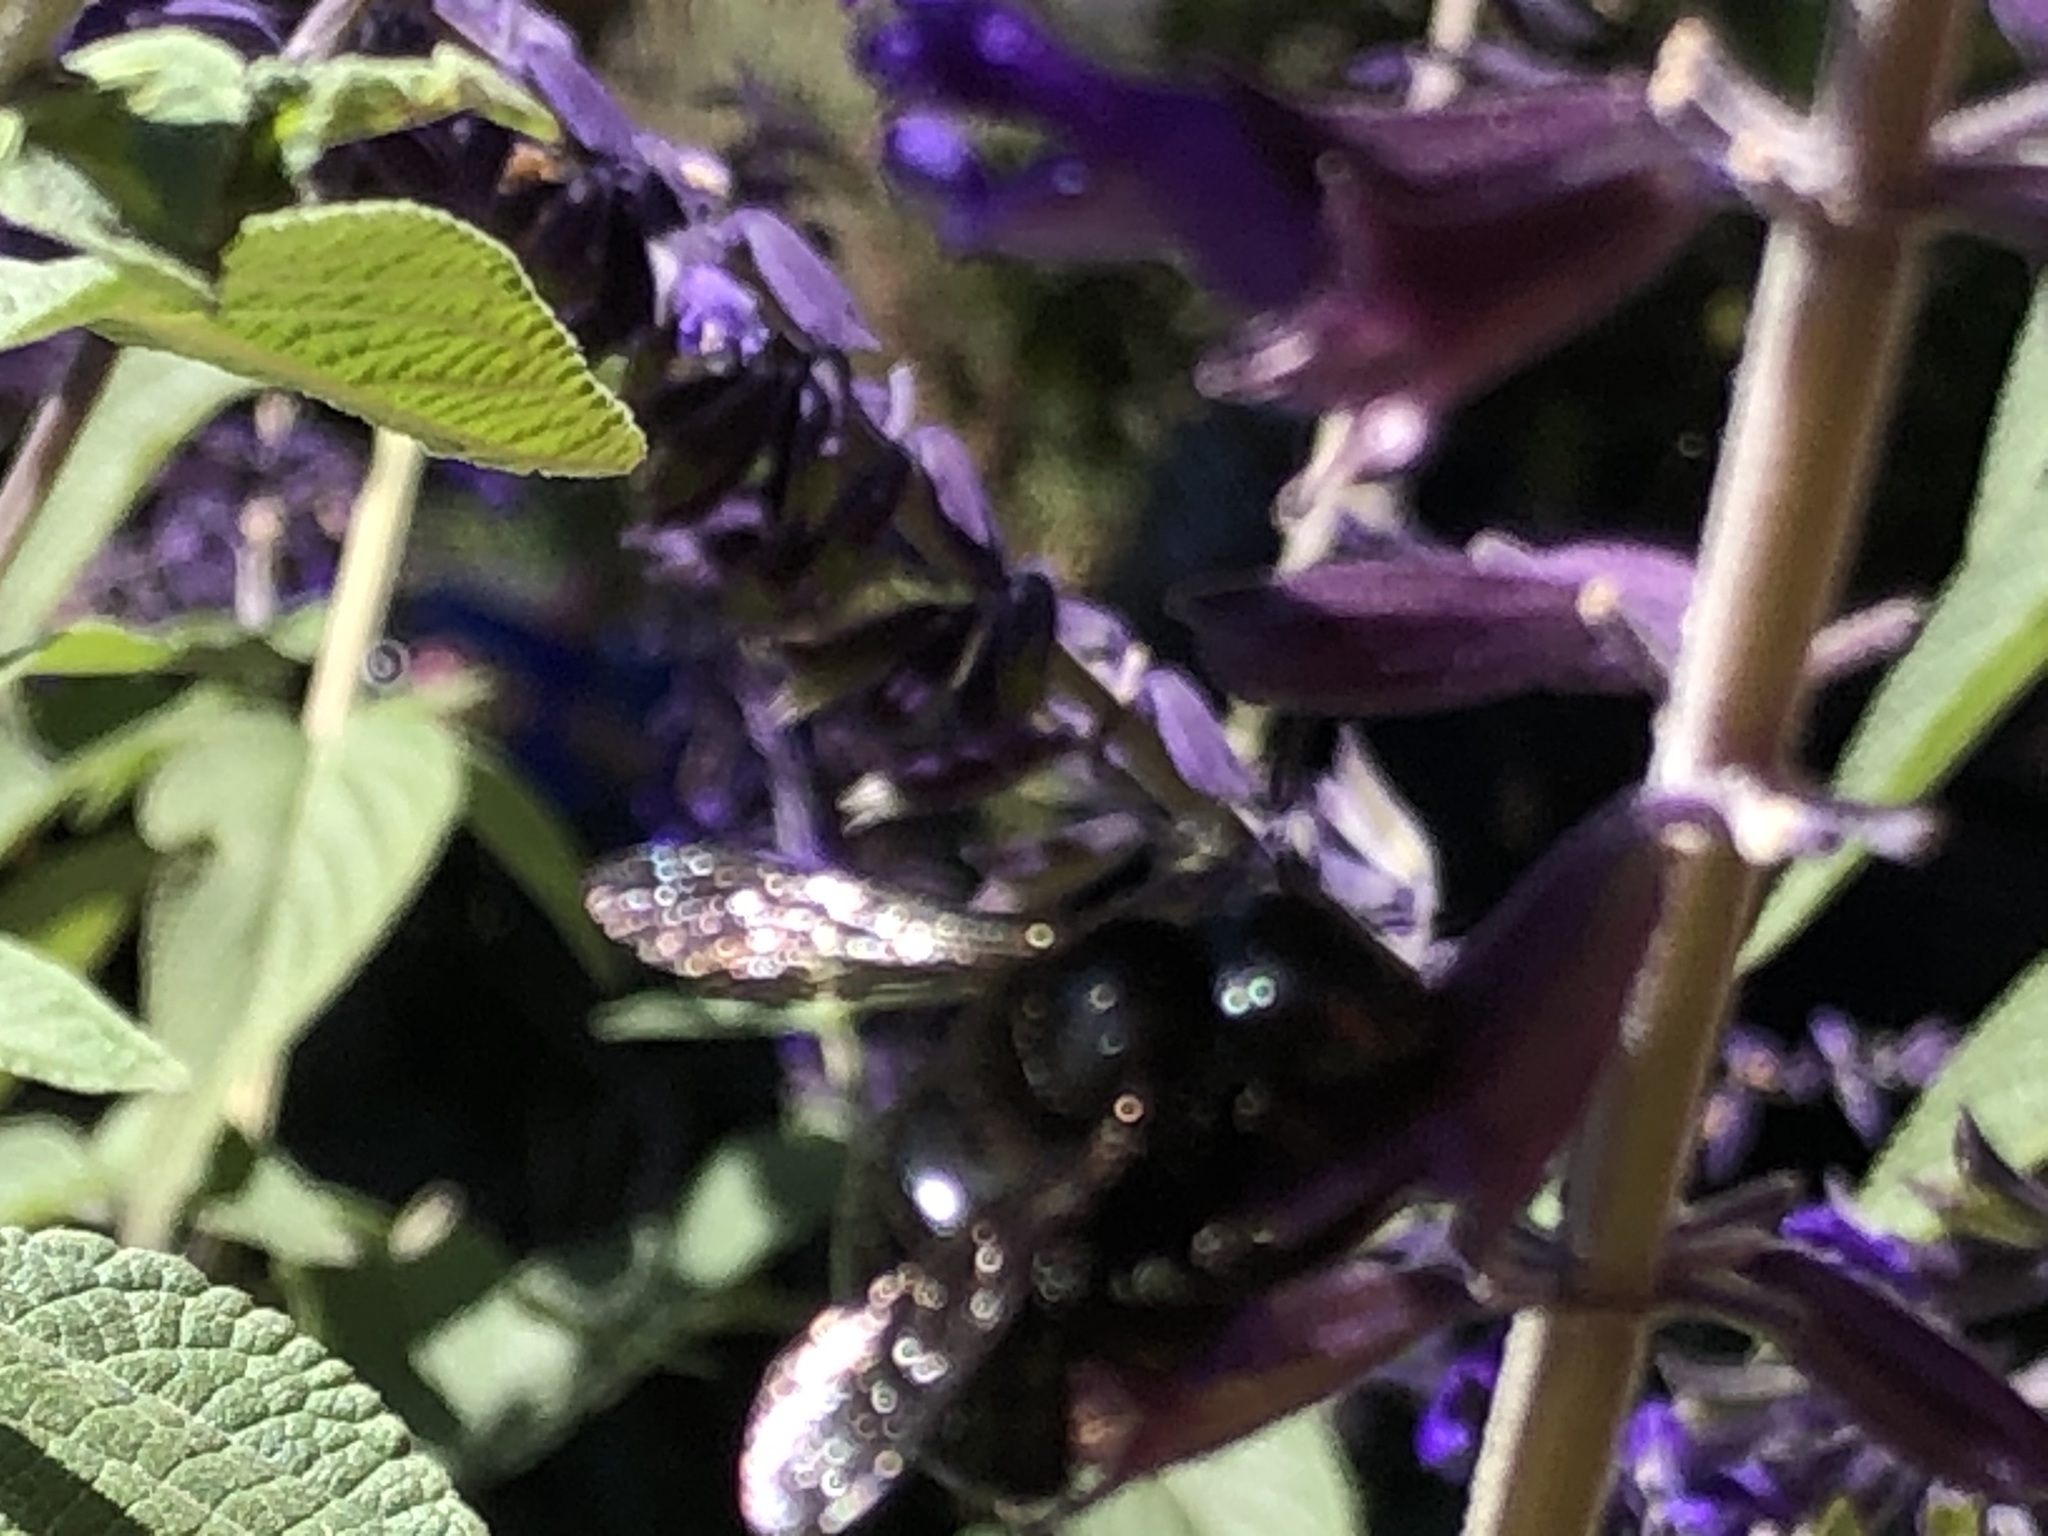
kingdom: Animalia
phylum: Arthropoda
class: Insecta
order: Hymenoptera
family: Apidae
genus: Xylocopa
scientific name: Xylocopa
